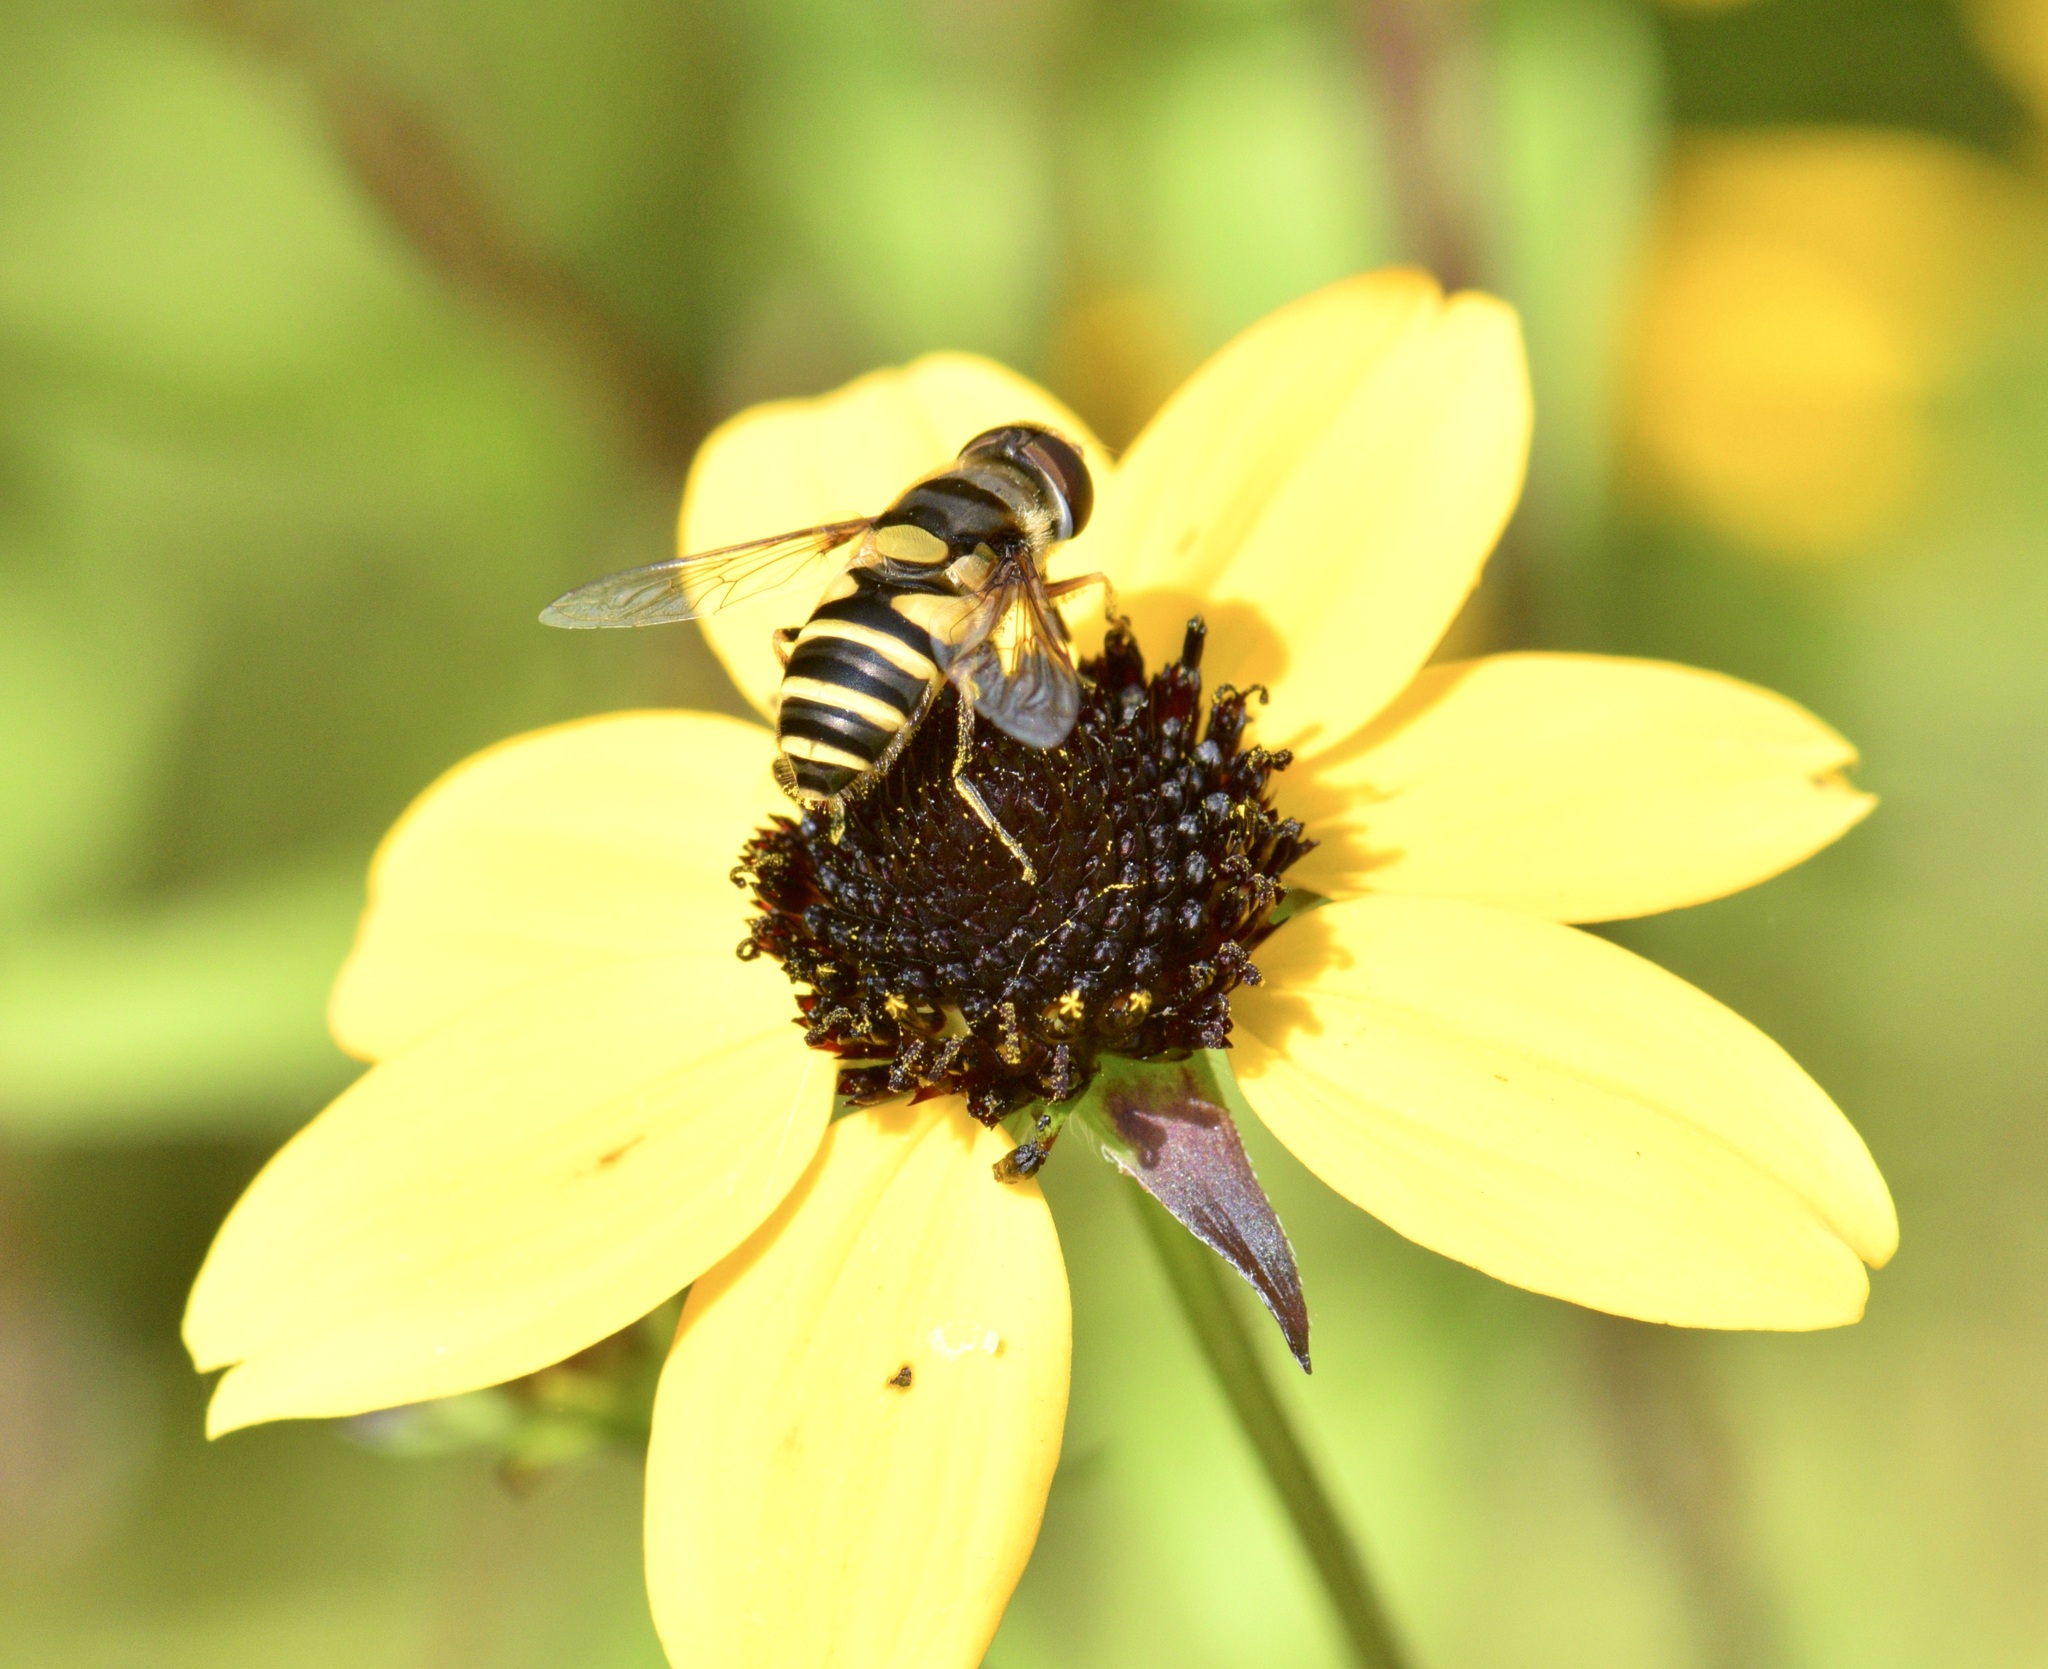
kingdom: Animalia
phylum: Arthropoda
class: Insecta
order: Diptera
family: Syrphidae
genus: Eristalis
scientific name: Eristalis transversa
